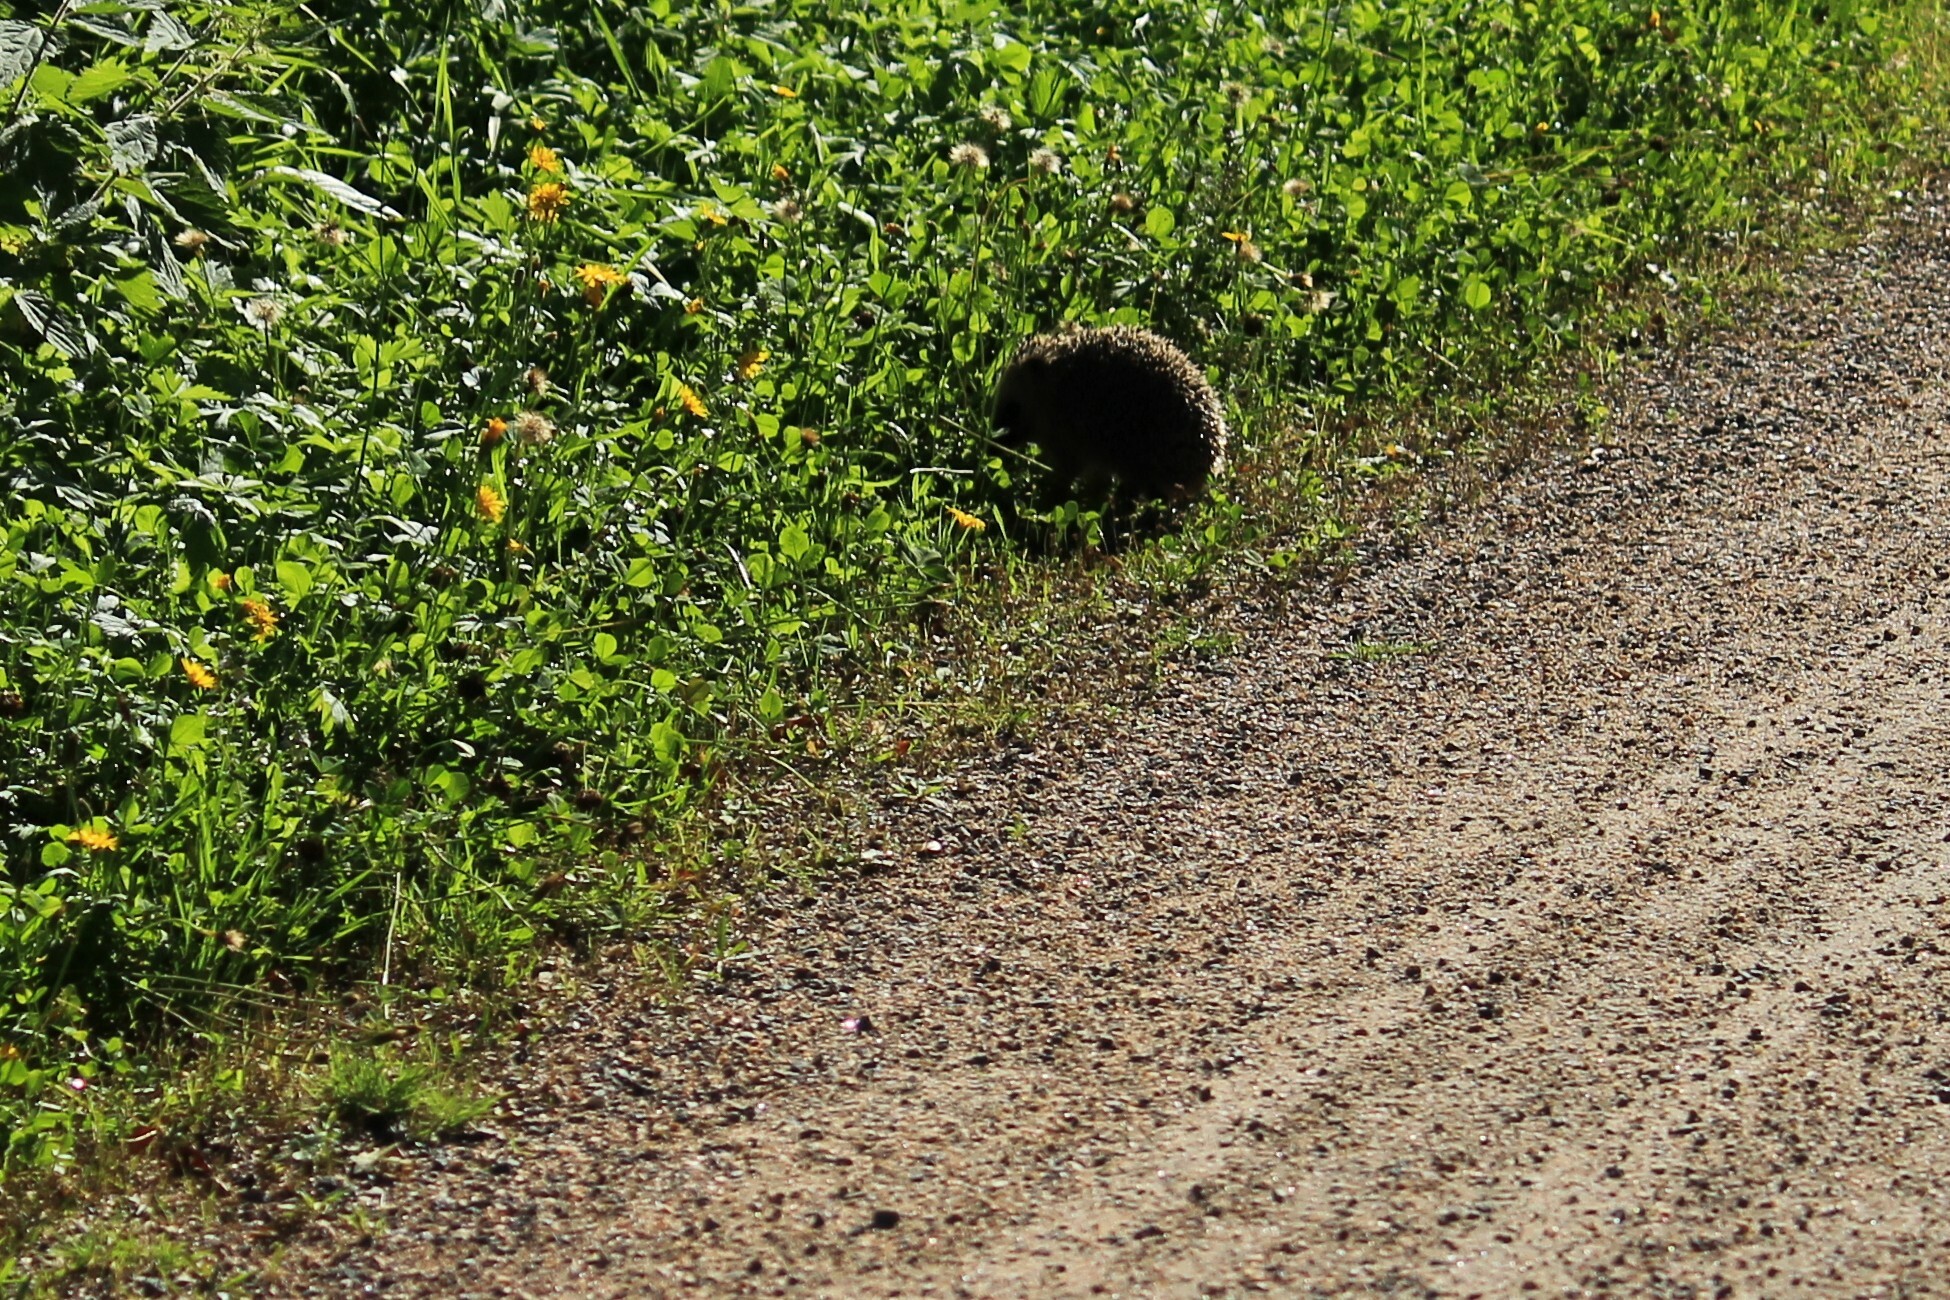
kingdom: Animalia
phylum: Chordata
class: Mammalia
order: Erinaceomorpha
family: Erinaceidae
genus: Erinaceus
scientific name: Erinaceus europaeus
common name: West european hedgehog
